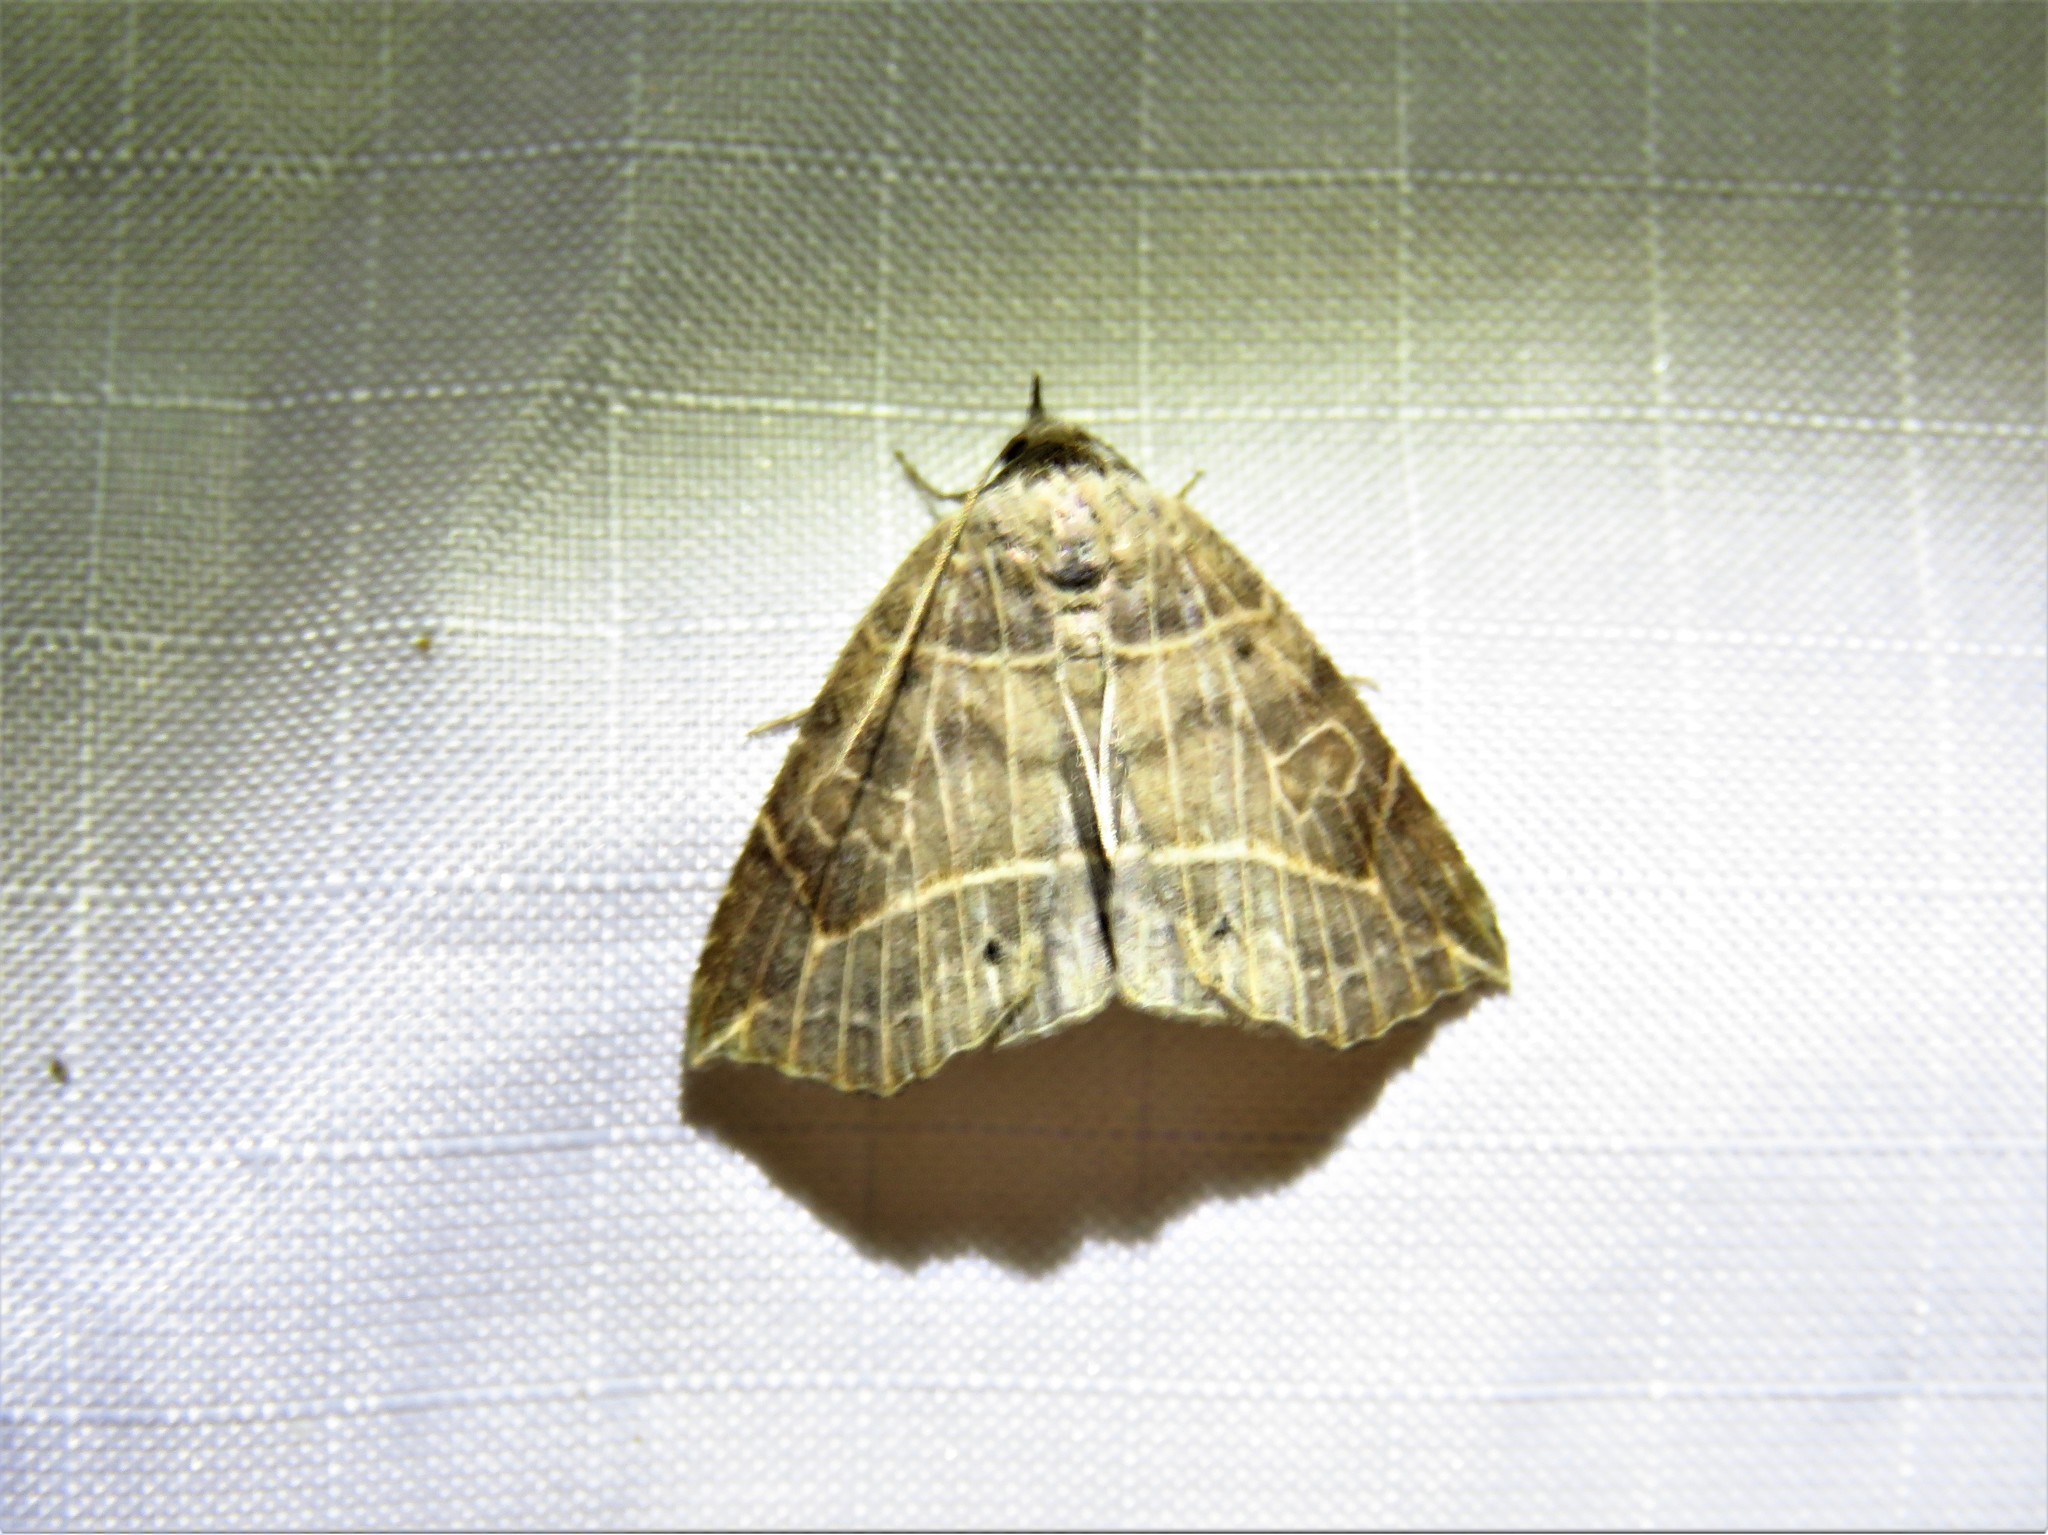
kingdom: Animalia
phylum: Arthropoda
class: Insecta
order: Lepidoptera
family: Erebidae
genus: Isogona
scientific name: Isogona tenuis
